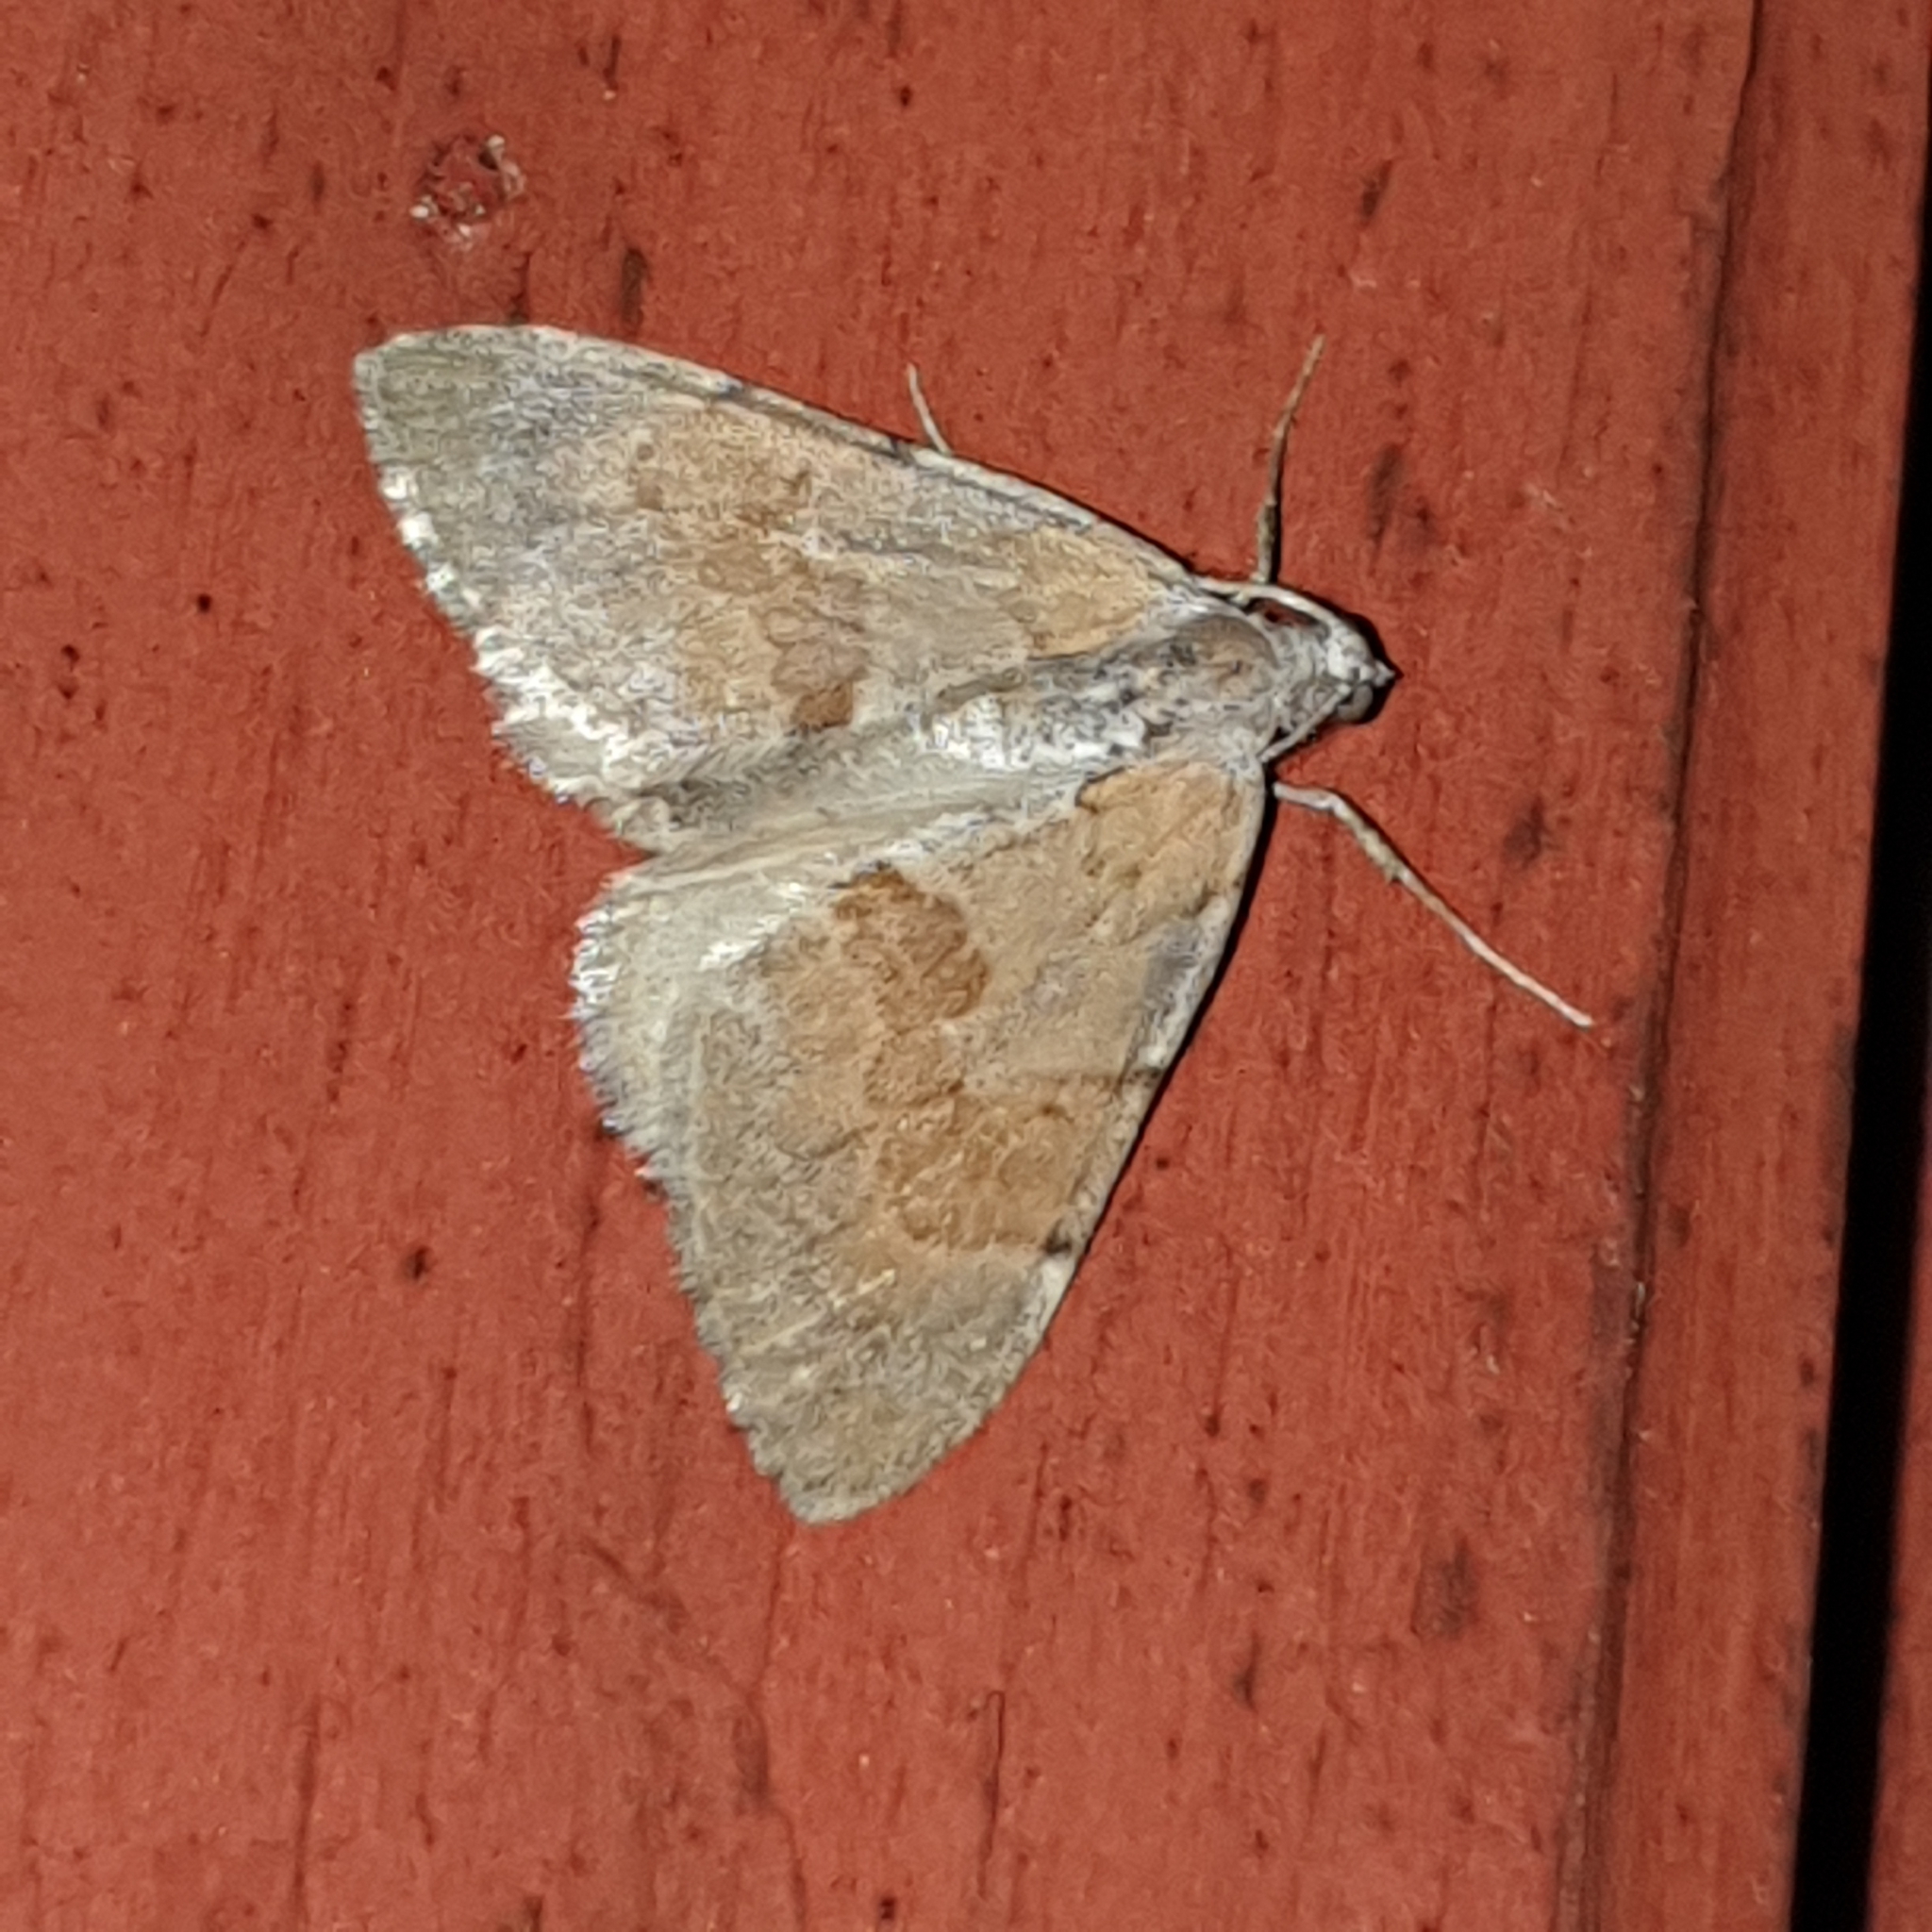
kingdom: Animalia
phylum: Arthropoda
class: Insecta
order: Lepidoptera
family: Geometridae
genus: Thera
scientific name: Thera obeliscata
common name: Grey pine carpet
